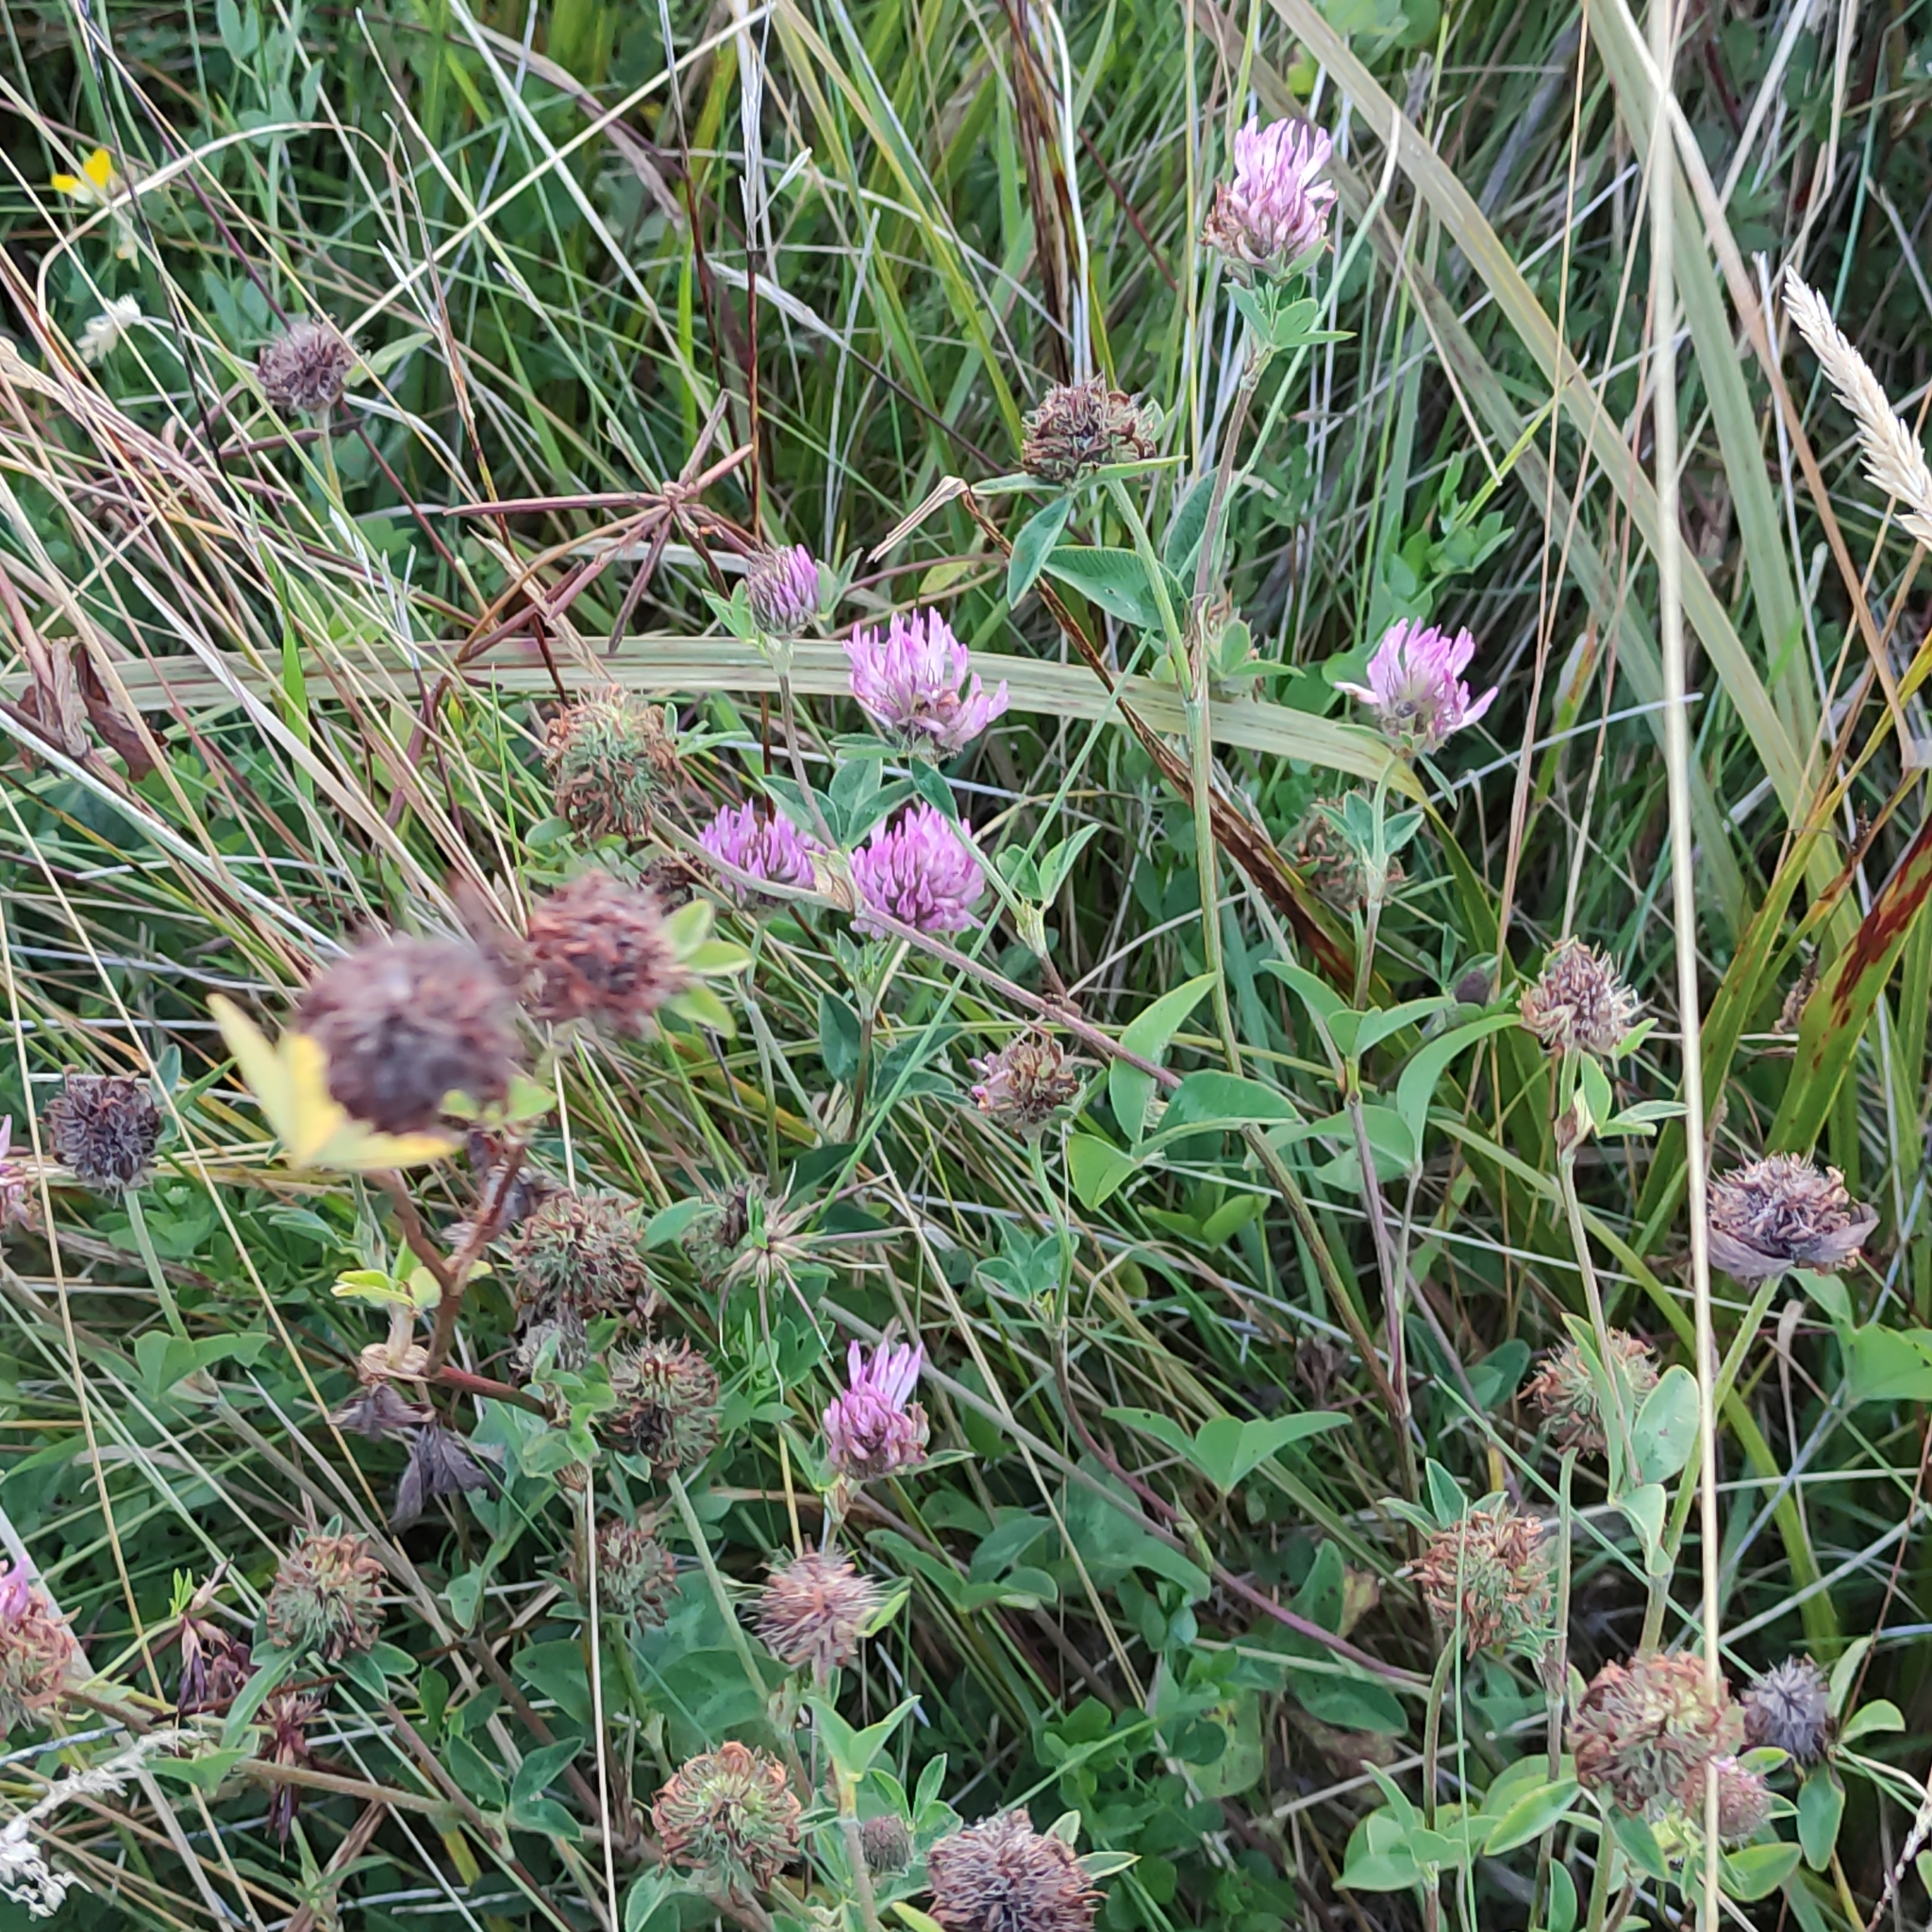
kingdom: Plantae
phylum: Tracheophyta
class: Magnoliopsida
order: Fabales
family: Fabaceae
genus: Trifolium
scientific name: Trifolium pratense
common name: Red clover
